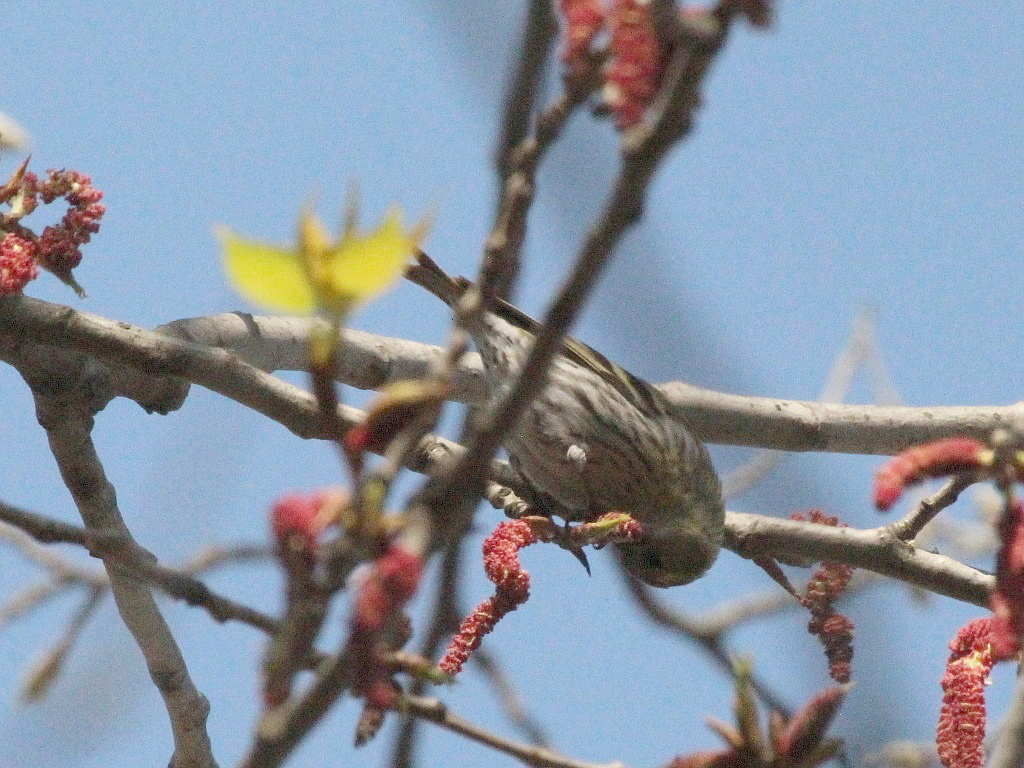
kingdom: Animalia
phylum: Chordata
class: Aves
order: Passeriformes
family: Fringillidae
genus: Spinus
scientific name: Spinus spinus
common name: Eurasian siskin
